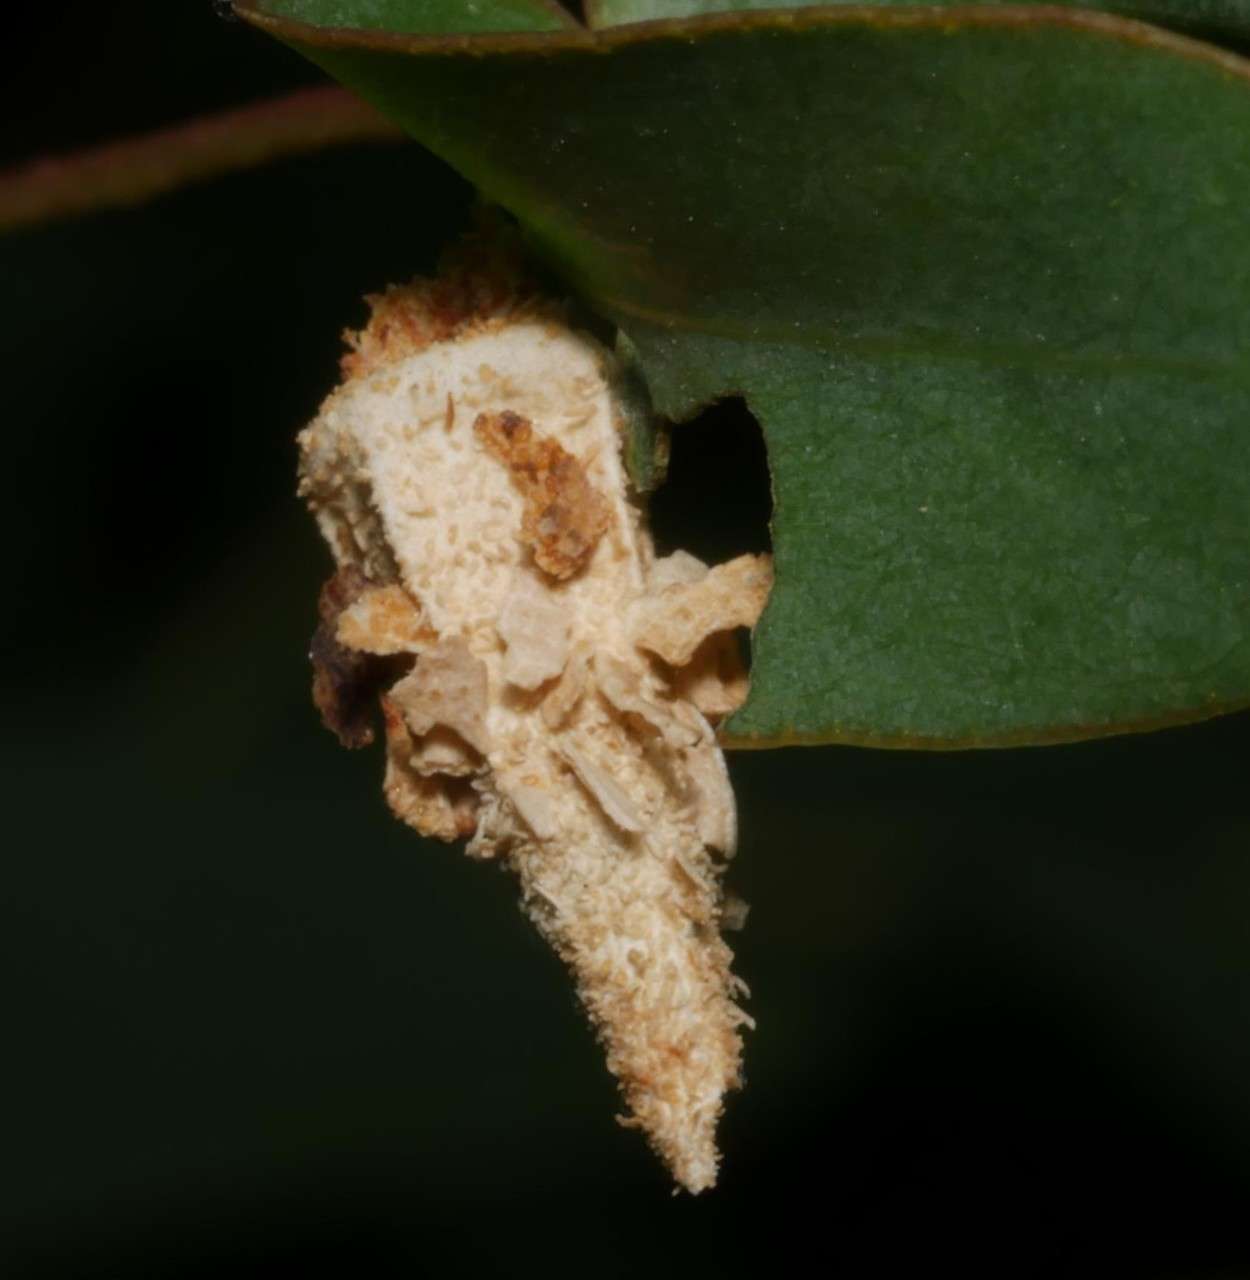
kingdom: Animalia
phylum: Arthropoda
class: Insecta
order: Lepidoptera
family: Psychidae
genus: Hyalarcta
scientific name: Hyalarcta nigrescens
